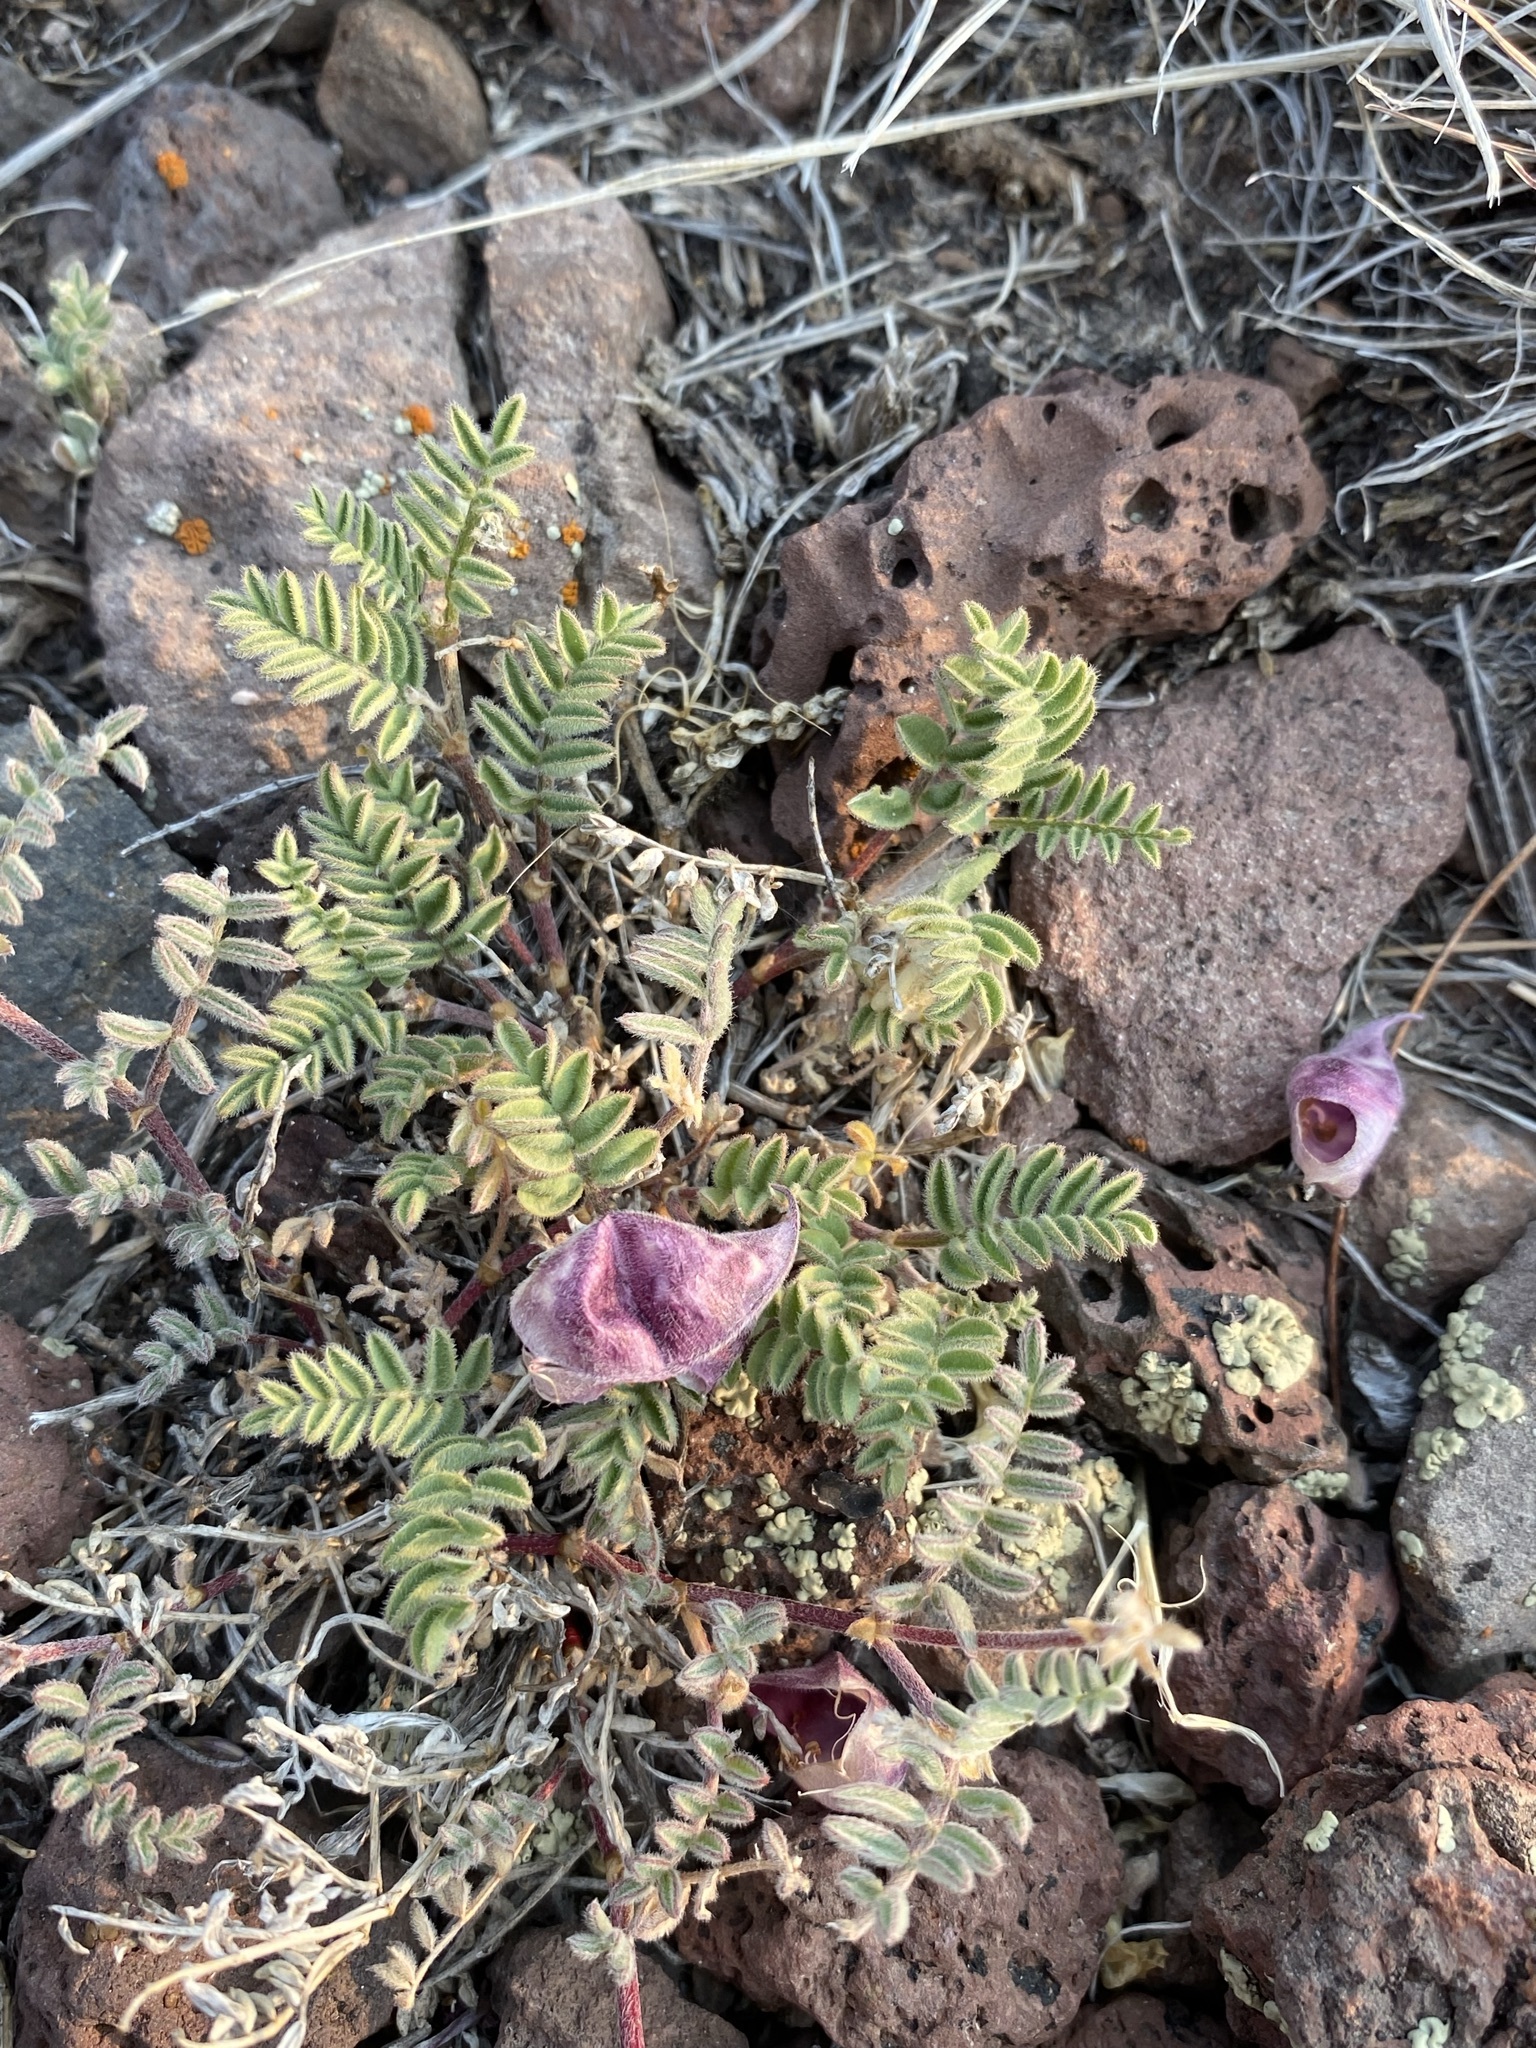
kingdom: Plantae
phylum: Tracheophyta
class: Magnoliopsida
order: Fabales
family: Fabaceae
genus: Astragalus
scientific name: Astragalus whitneyi
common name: Balloonpod milkvetch
